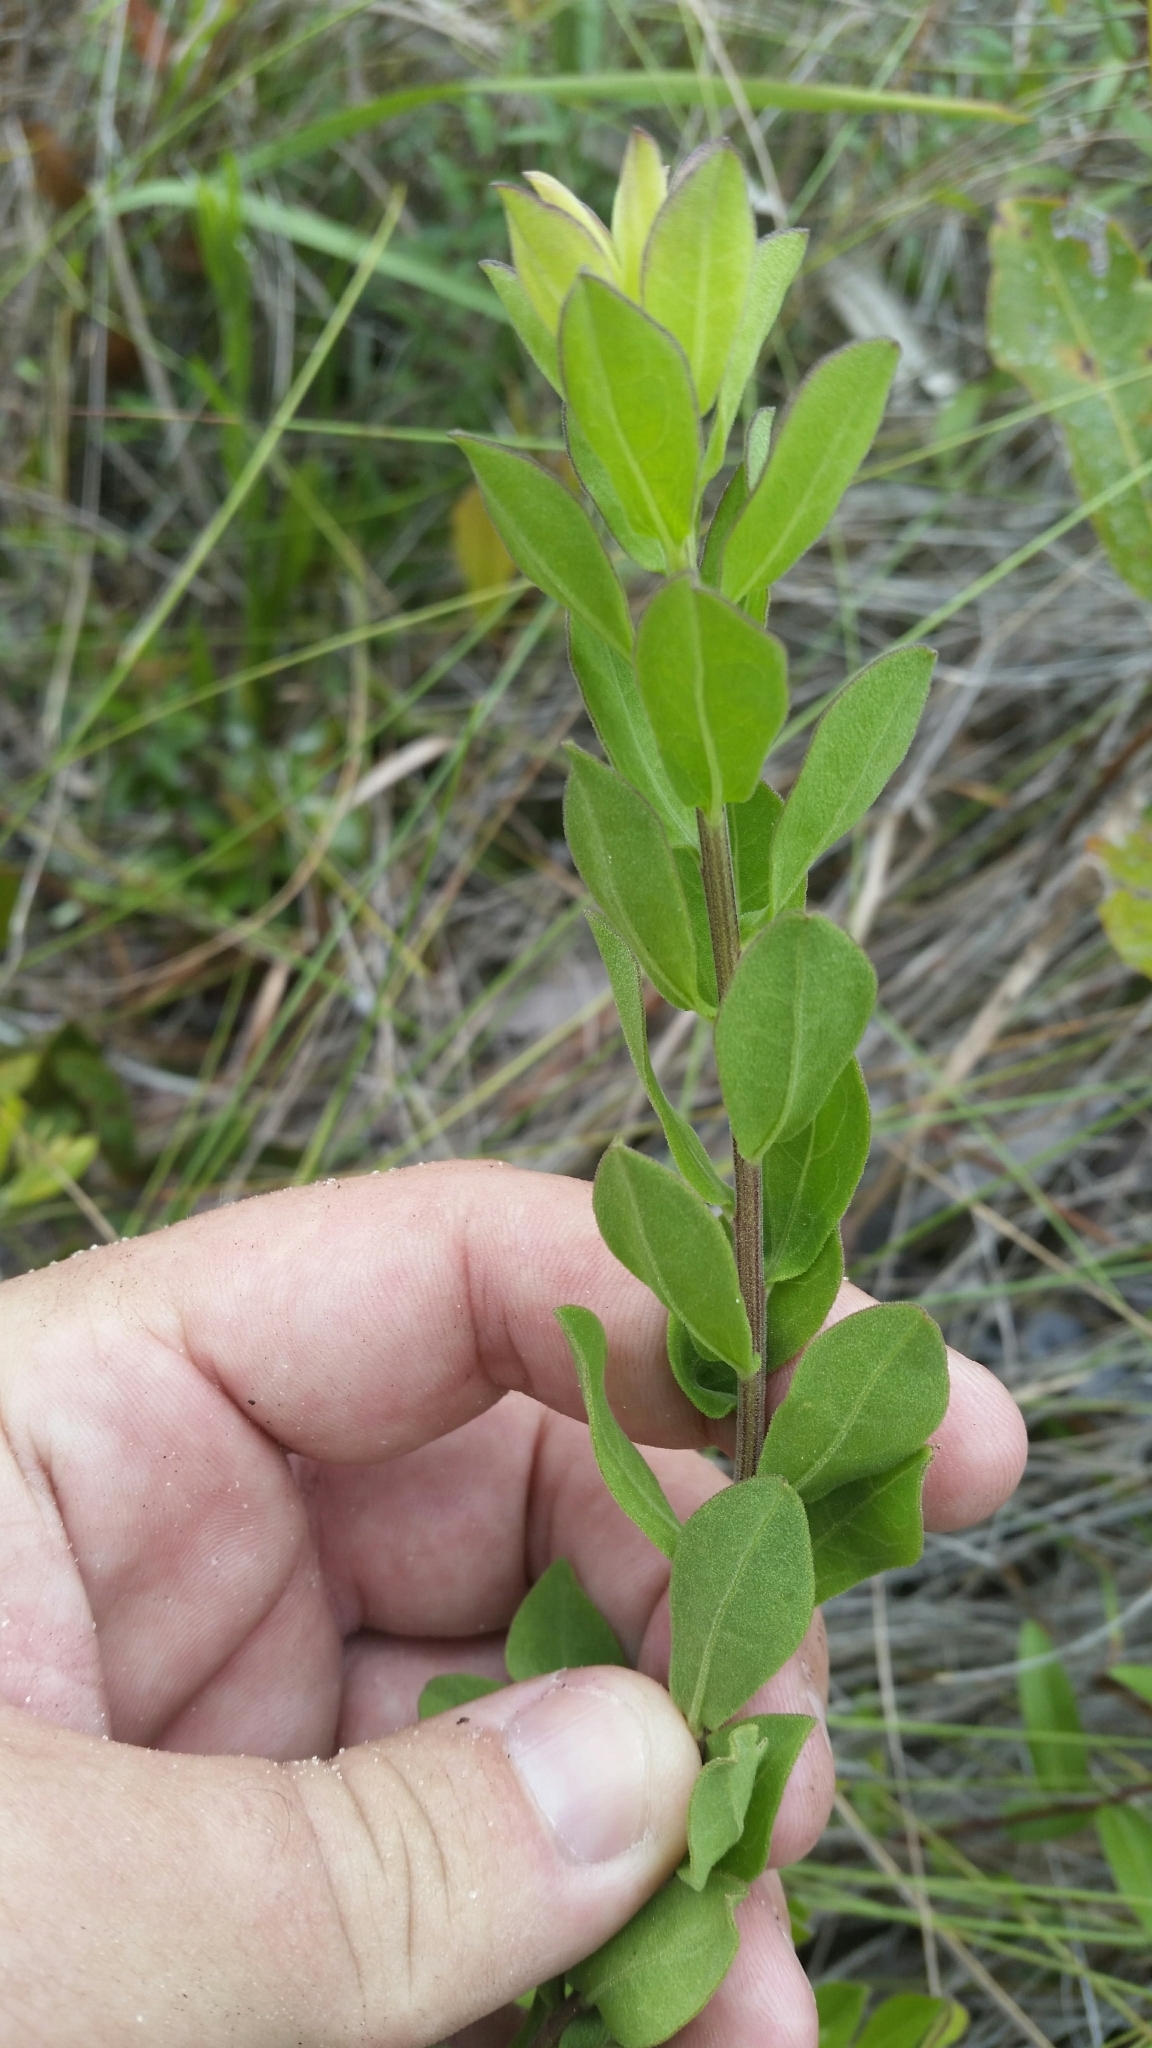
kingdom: Plantae
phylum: Tracheophyta
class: Magnoliopsida
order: Asterales
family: Asteraceae
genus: Sericocarpus
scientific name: Sericocarpus tortifolius
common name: Dixie aster
